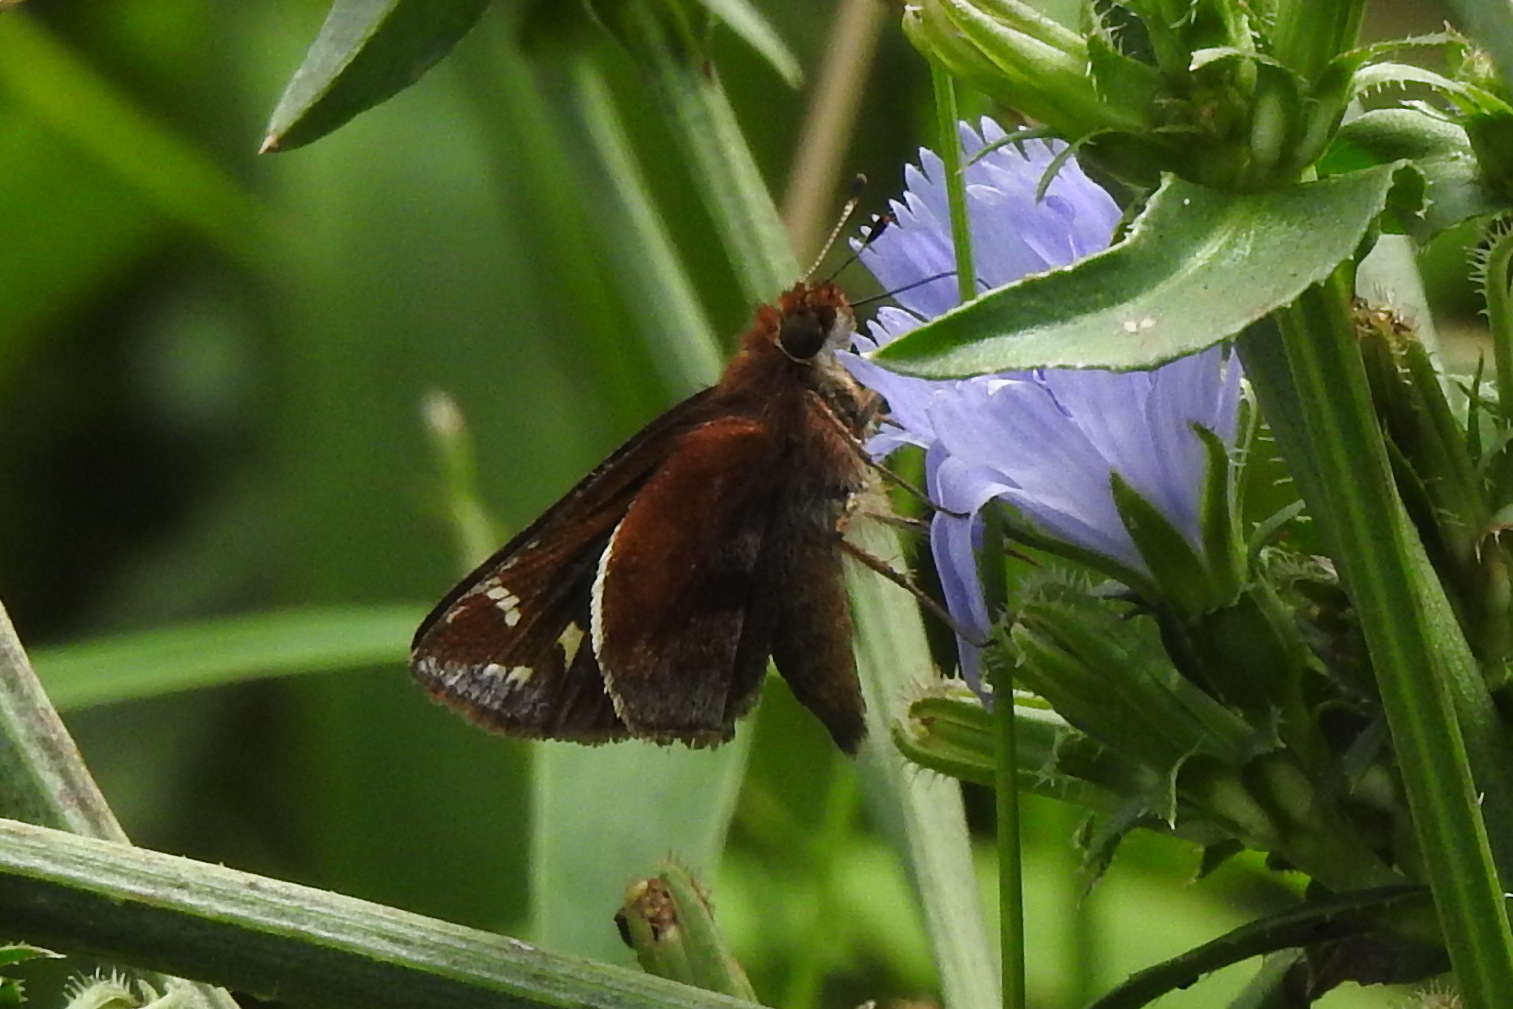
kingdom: Animalia
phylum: Arthropoda
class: Insecta
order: Lepidoptera
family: Hesperiidae
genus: Lon
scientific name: Lon zabulon
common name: Zabulon skipper
